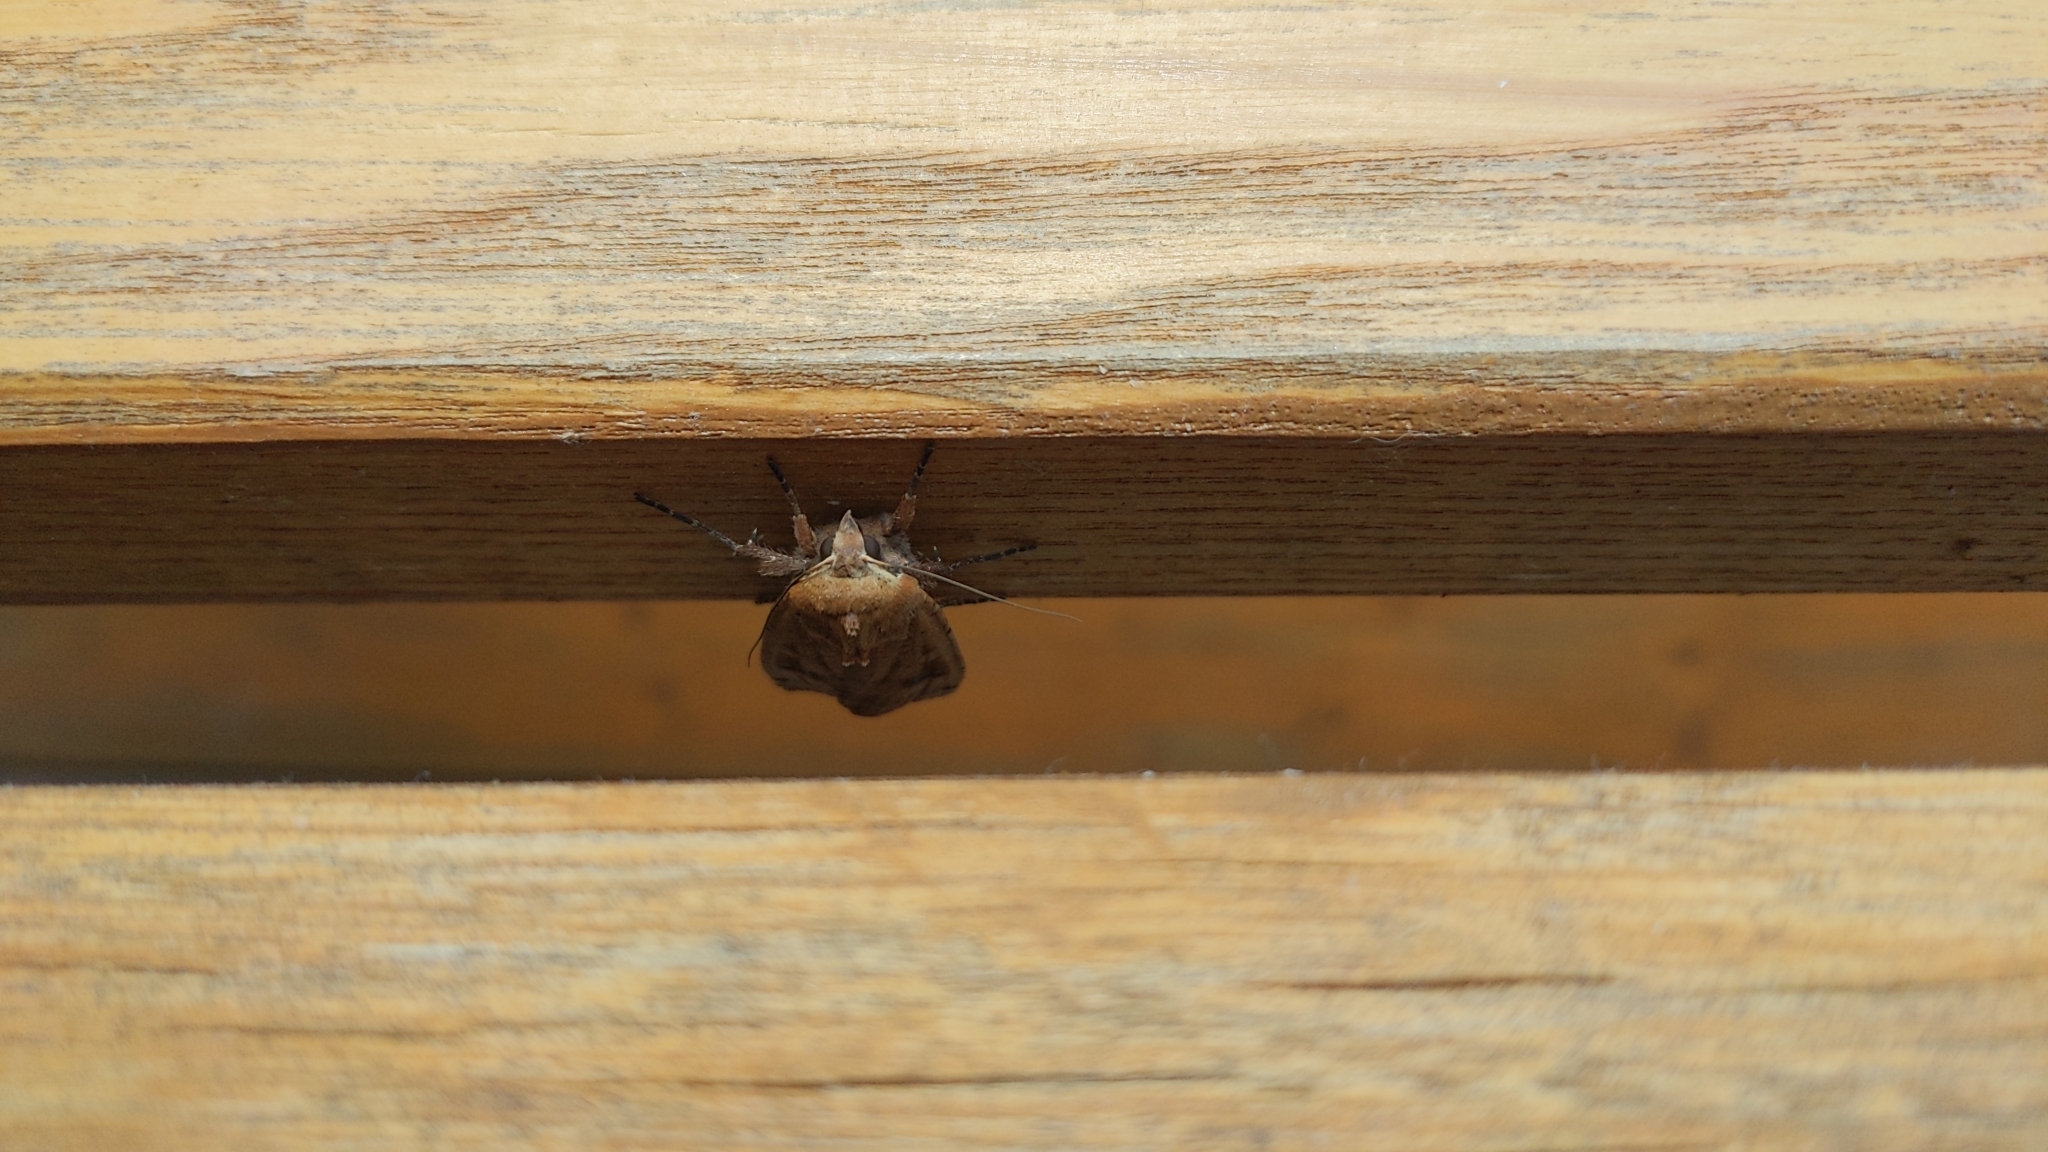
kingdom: Animalia
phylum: Arthropoda
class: Insecta
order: Lepidoptera
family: Noctuidae
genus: Noctua
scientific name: Noctua pronuba
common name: Large yellow underwing
